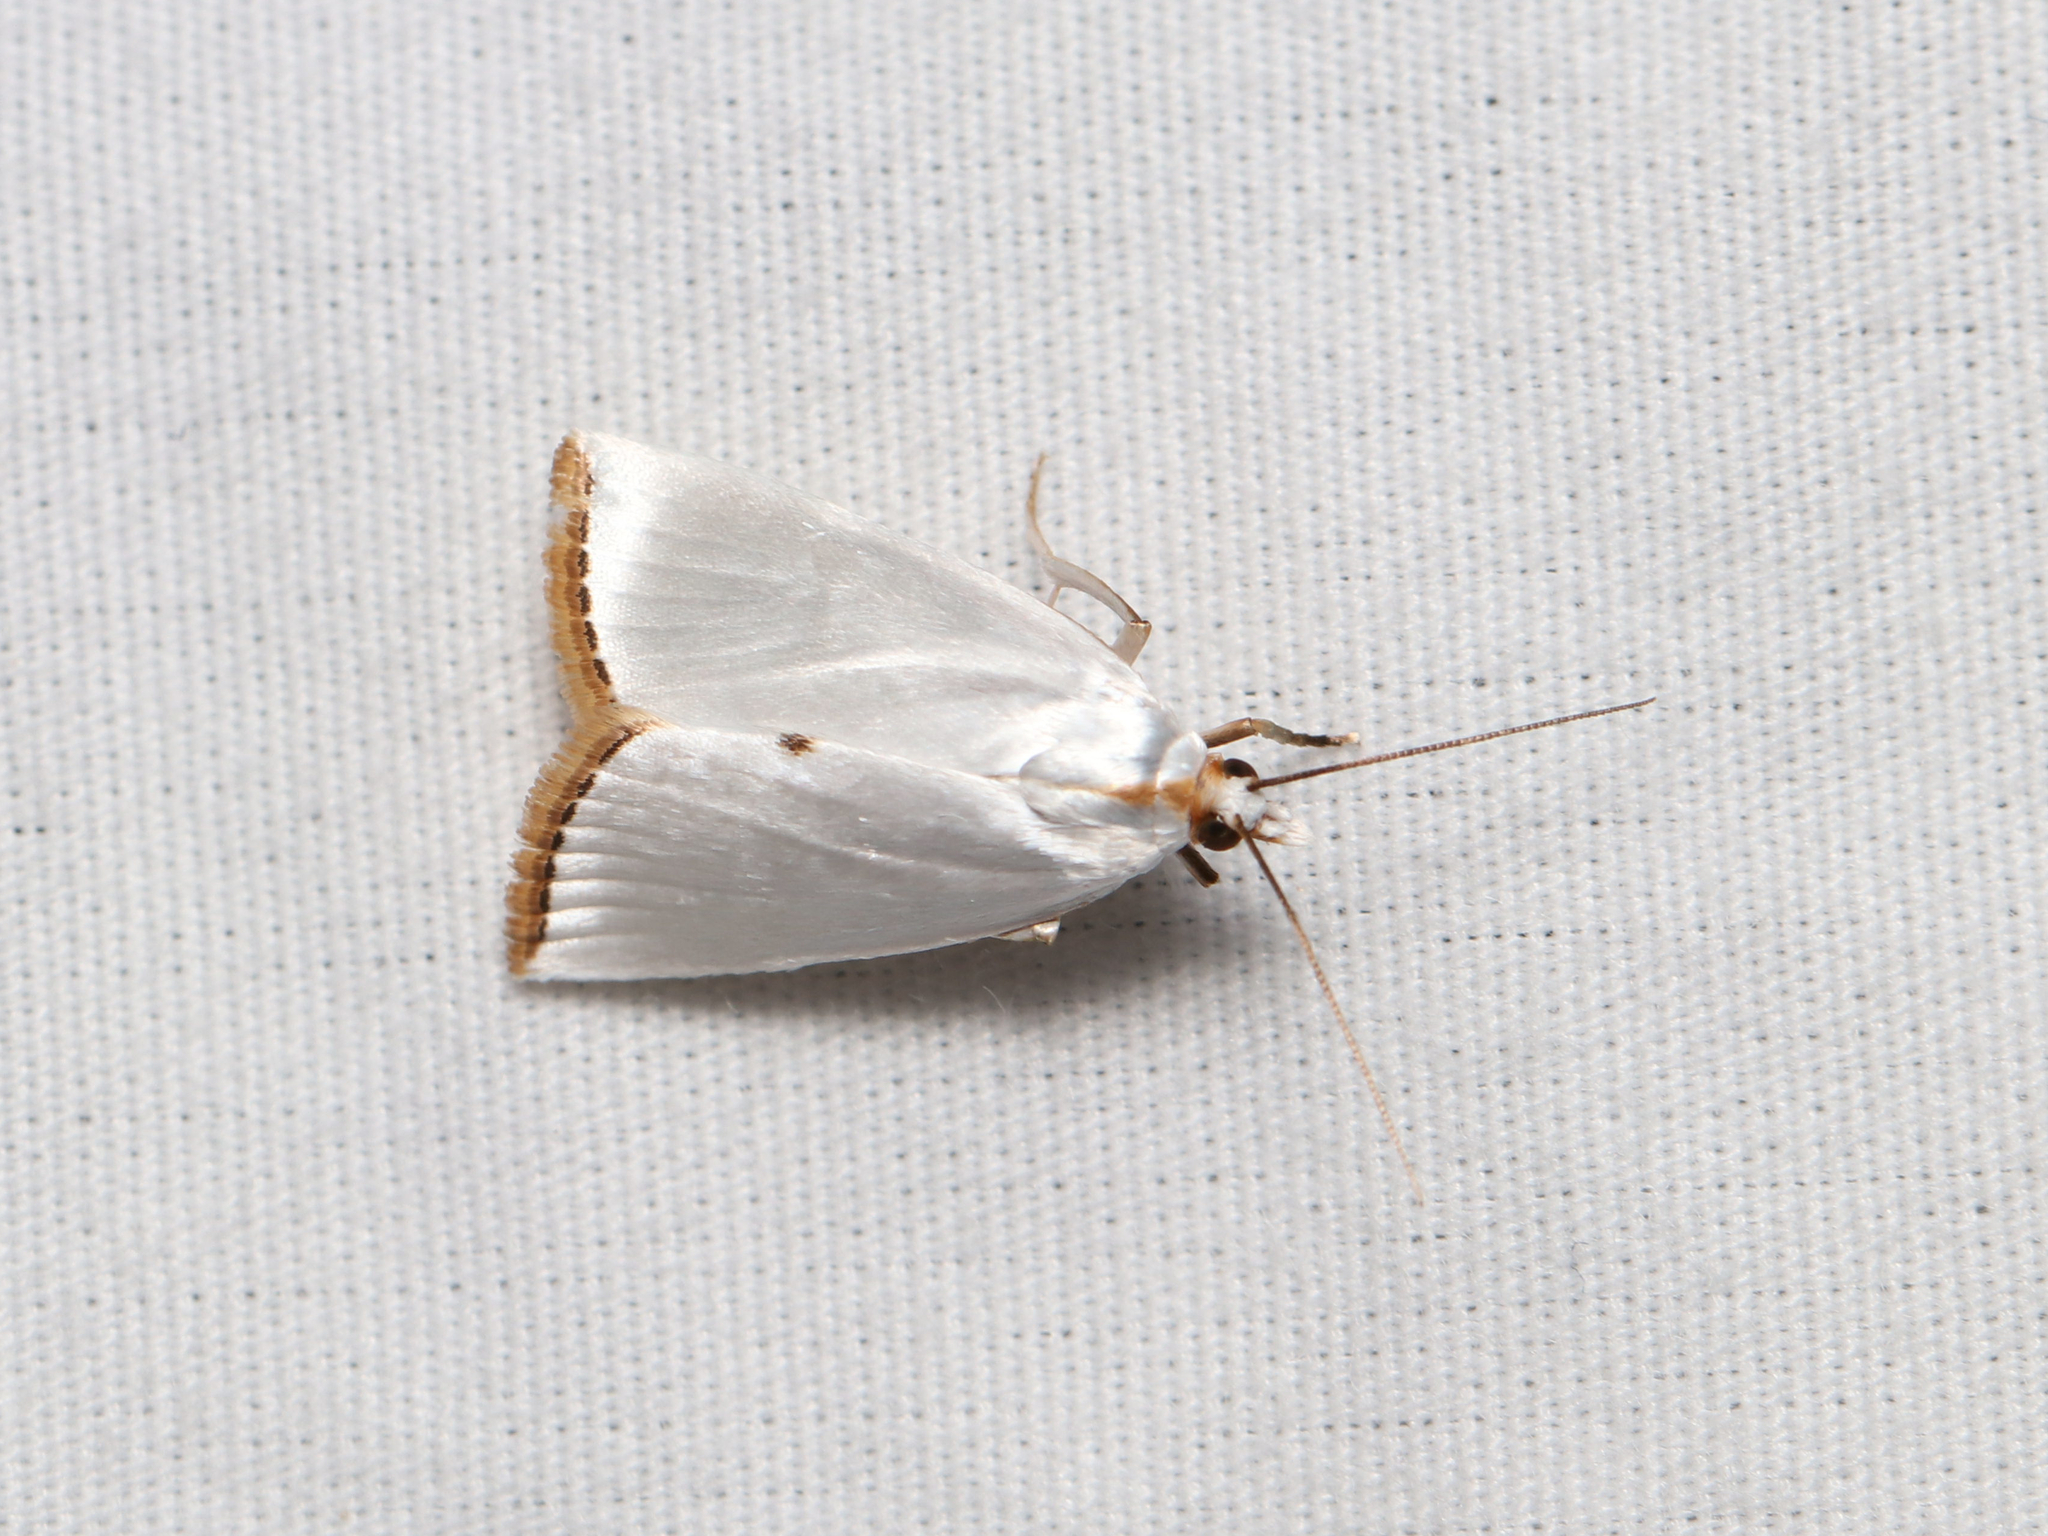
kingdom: Animalia
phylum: Arthropoda
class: Insecta
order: Lepidoptera
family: Crambidae
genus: Argyria
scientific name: Argyria nivalis
